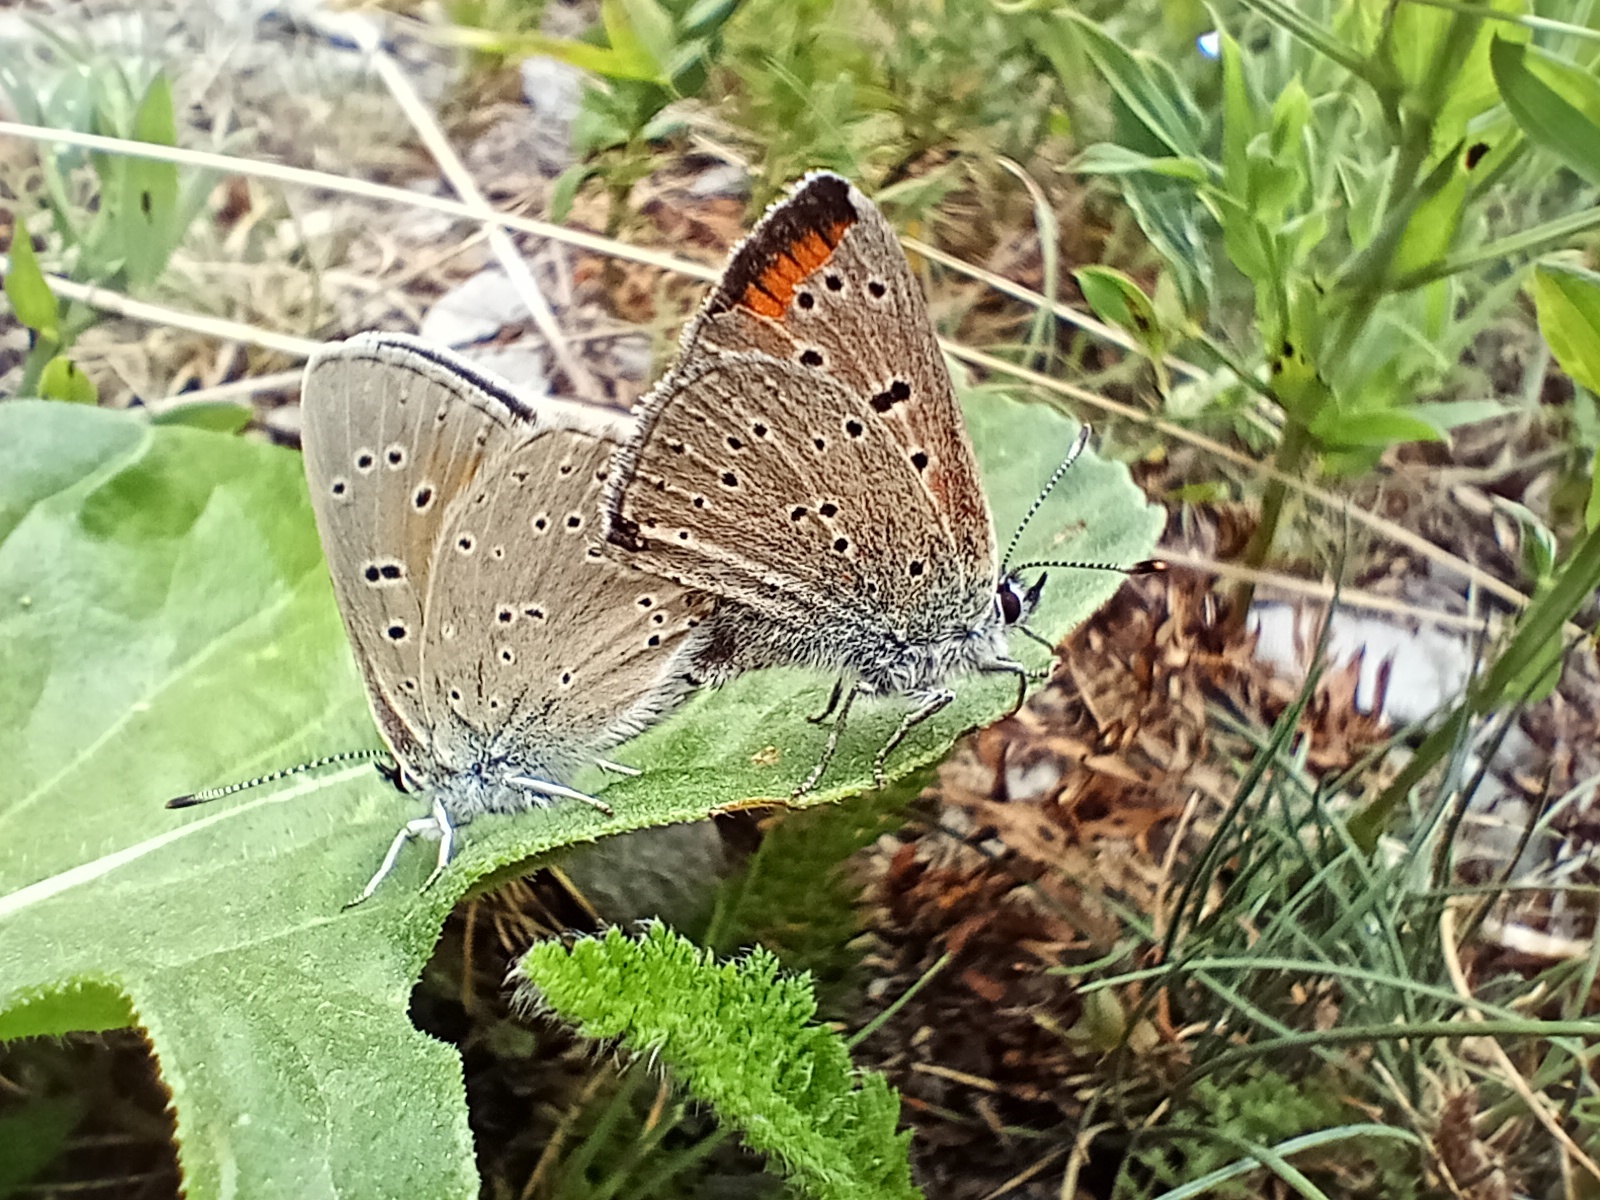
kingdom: Animalia
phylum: Arthropoda
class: Insecta
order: Lepidoptera
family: Lycaenidae
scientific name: Lycaenidae
